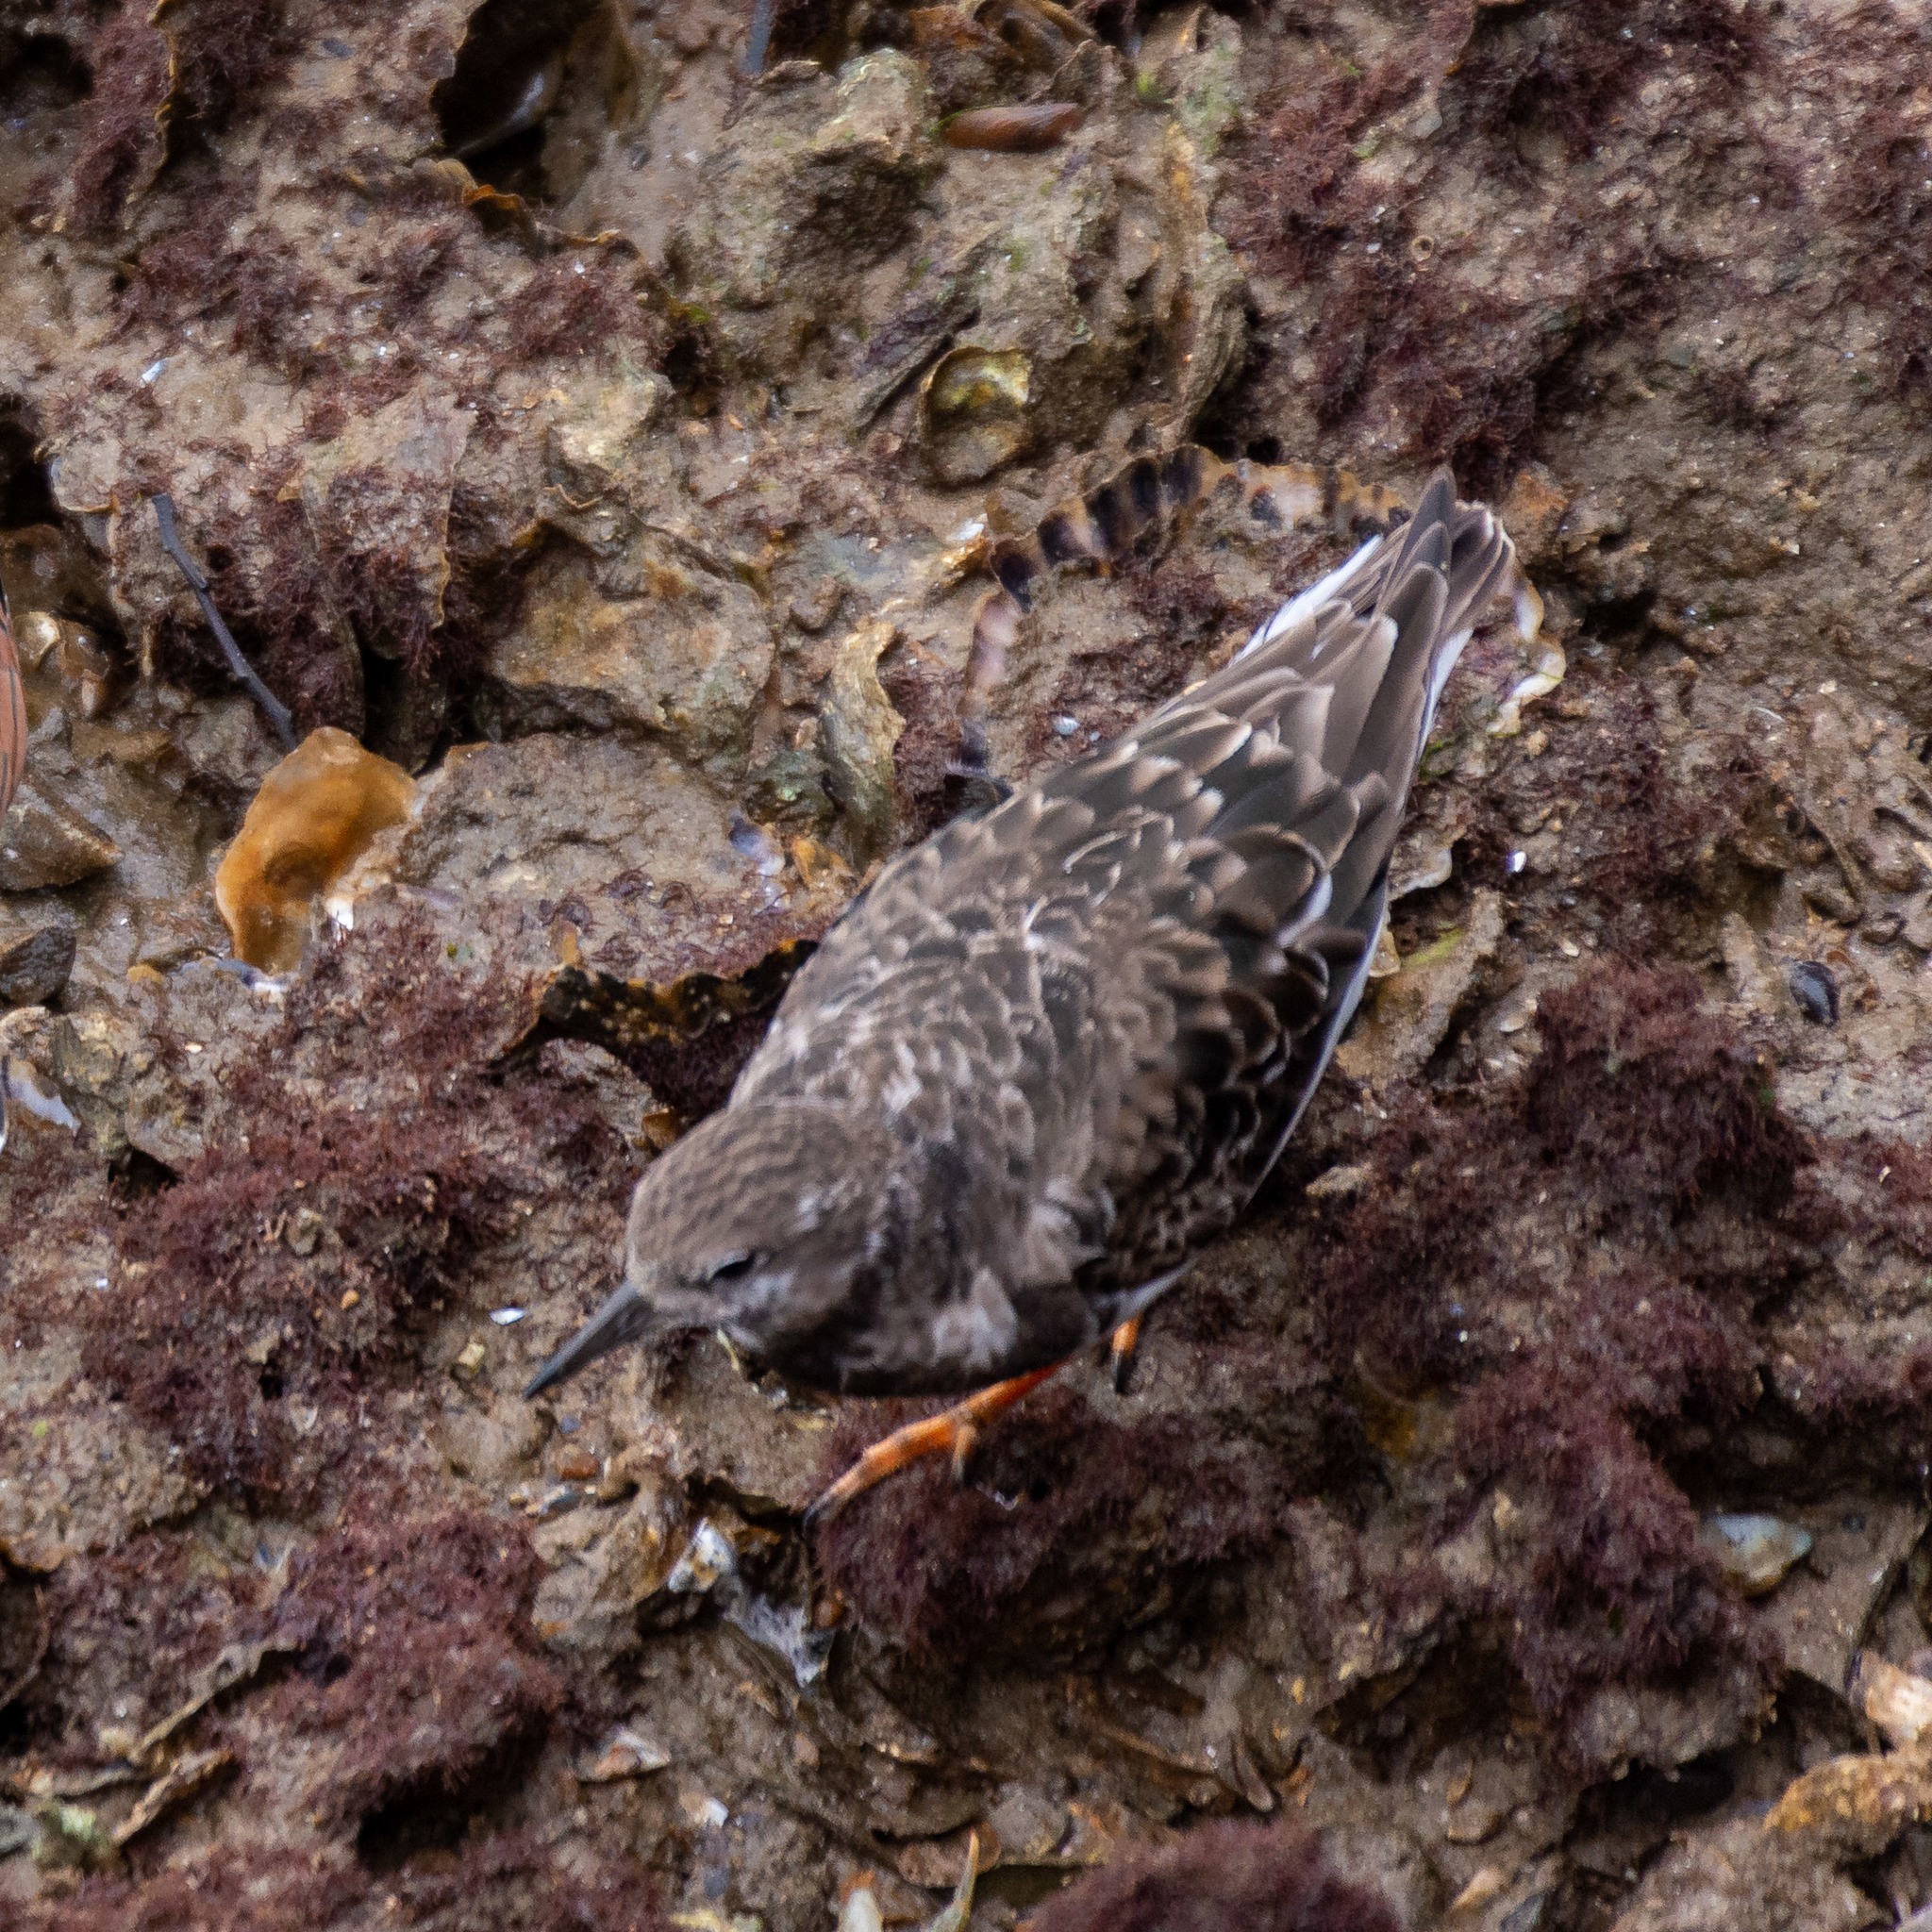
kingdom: Animalia
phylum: Chordata
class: Aves
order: Charadriiformes
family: Scolopacidae
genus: Arenaria
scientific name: Arenaria interpres
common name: Ruddy turnstone
